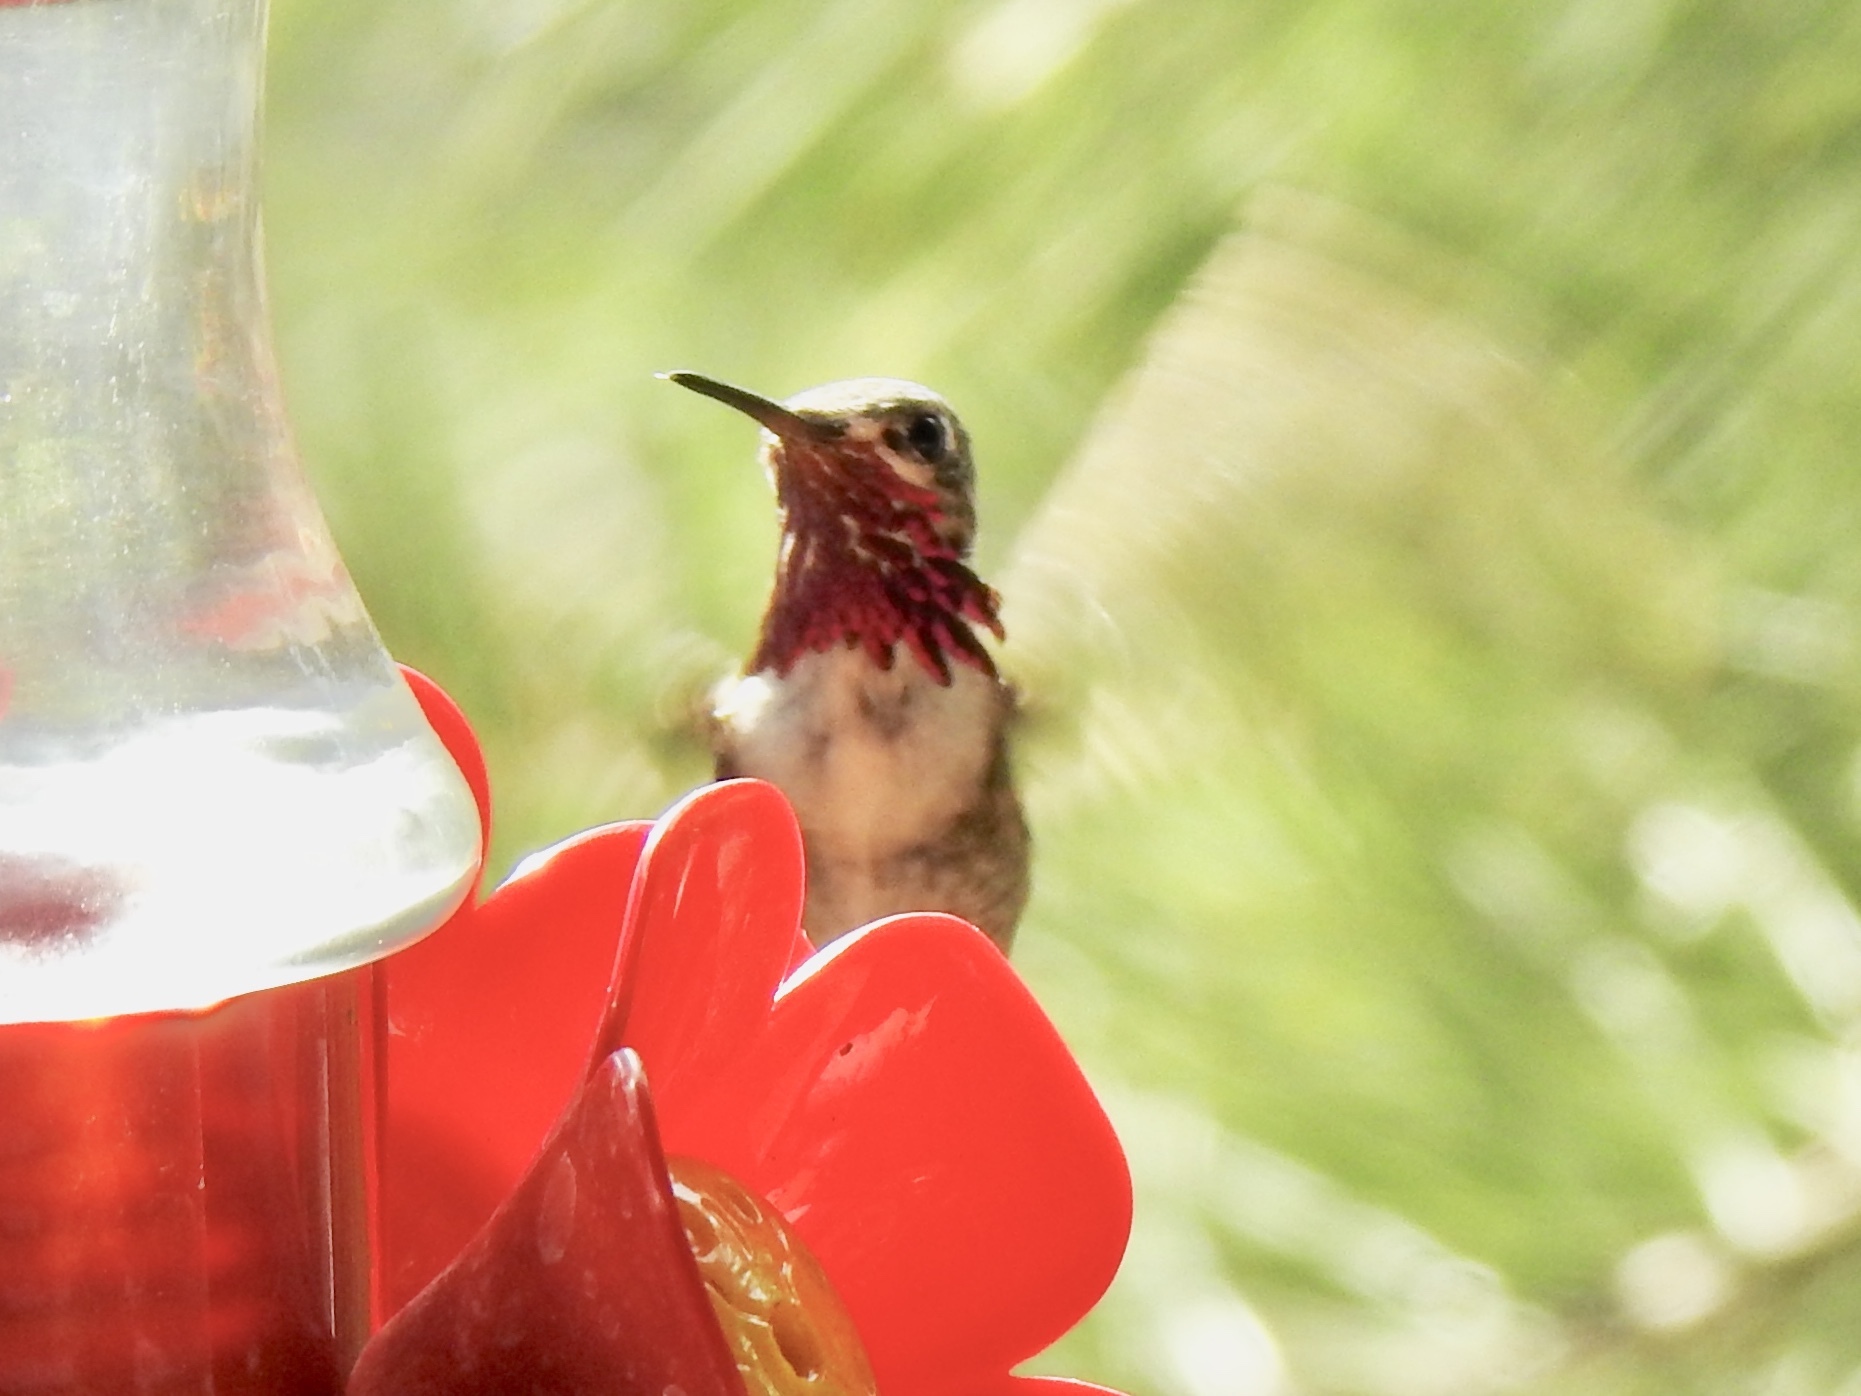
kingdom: Animalia
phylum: Chordata
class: Aves
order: Apodiformes
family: Trochilidae
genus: Selasphorus
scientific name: Selasphorus calliope
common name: Calliope hummingbird
